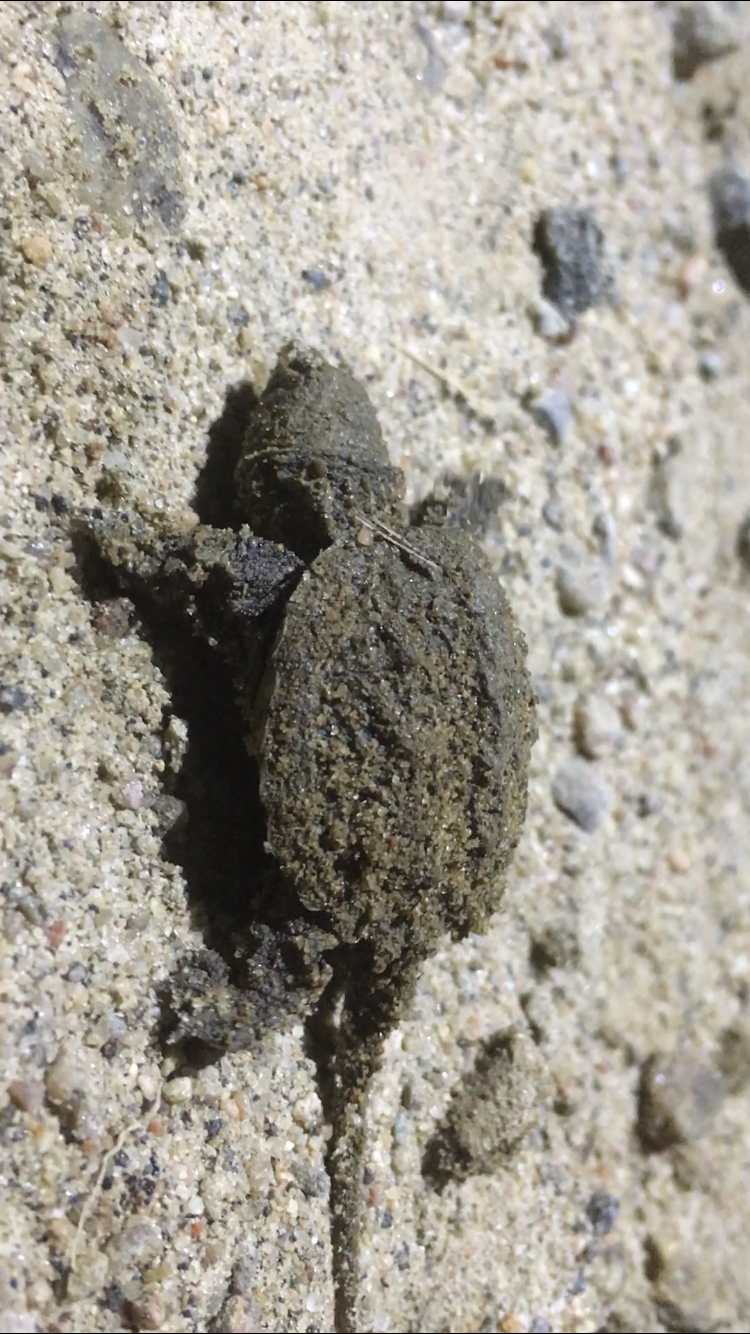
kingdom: Animalia
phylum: Chordata
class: Testudines
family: Chelydridae
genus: Chelydra
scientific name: Chelydra serpentina
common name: Common snapping turtle
